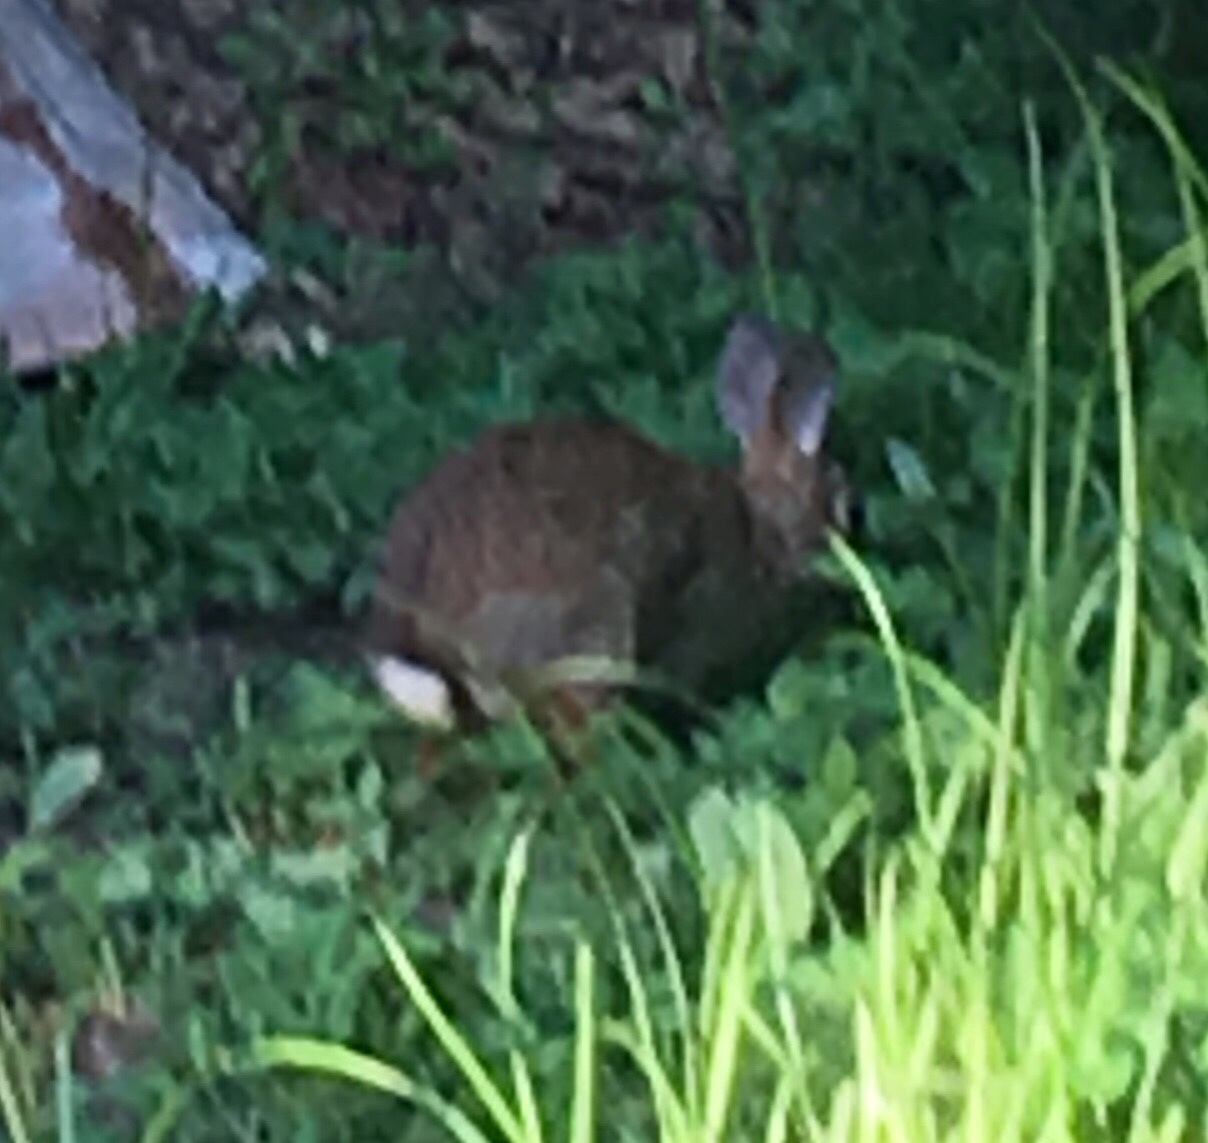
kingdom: Animalia
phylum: Chordata
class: Mammalia
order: Lagomorpha
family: Leporidae
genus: Sylvilagus
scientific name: Sylvilagus floridanus
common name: Eastern cottontail
